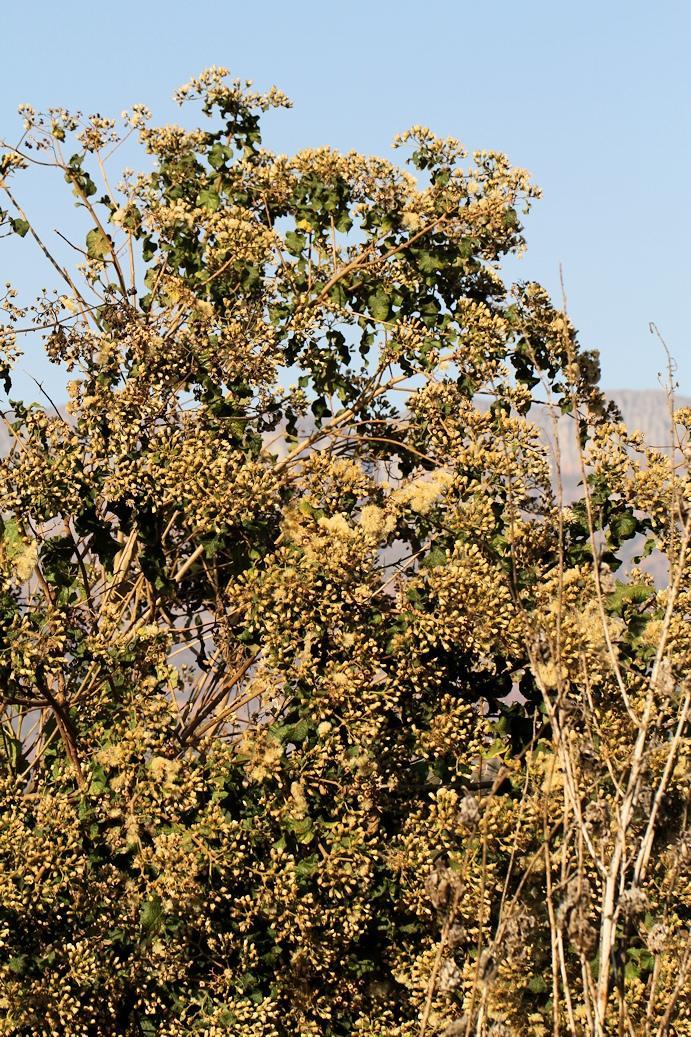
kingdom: Plantae
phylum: Tracheophyta
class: Magnoliopsida
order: Asterales
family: Asteraceae
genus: Vernonia
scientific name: Vernonia colorata
